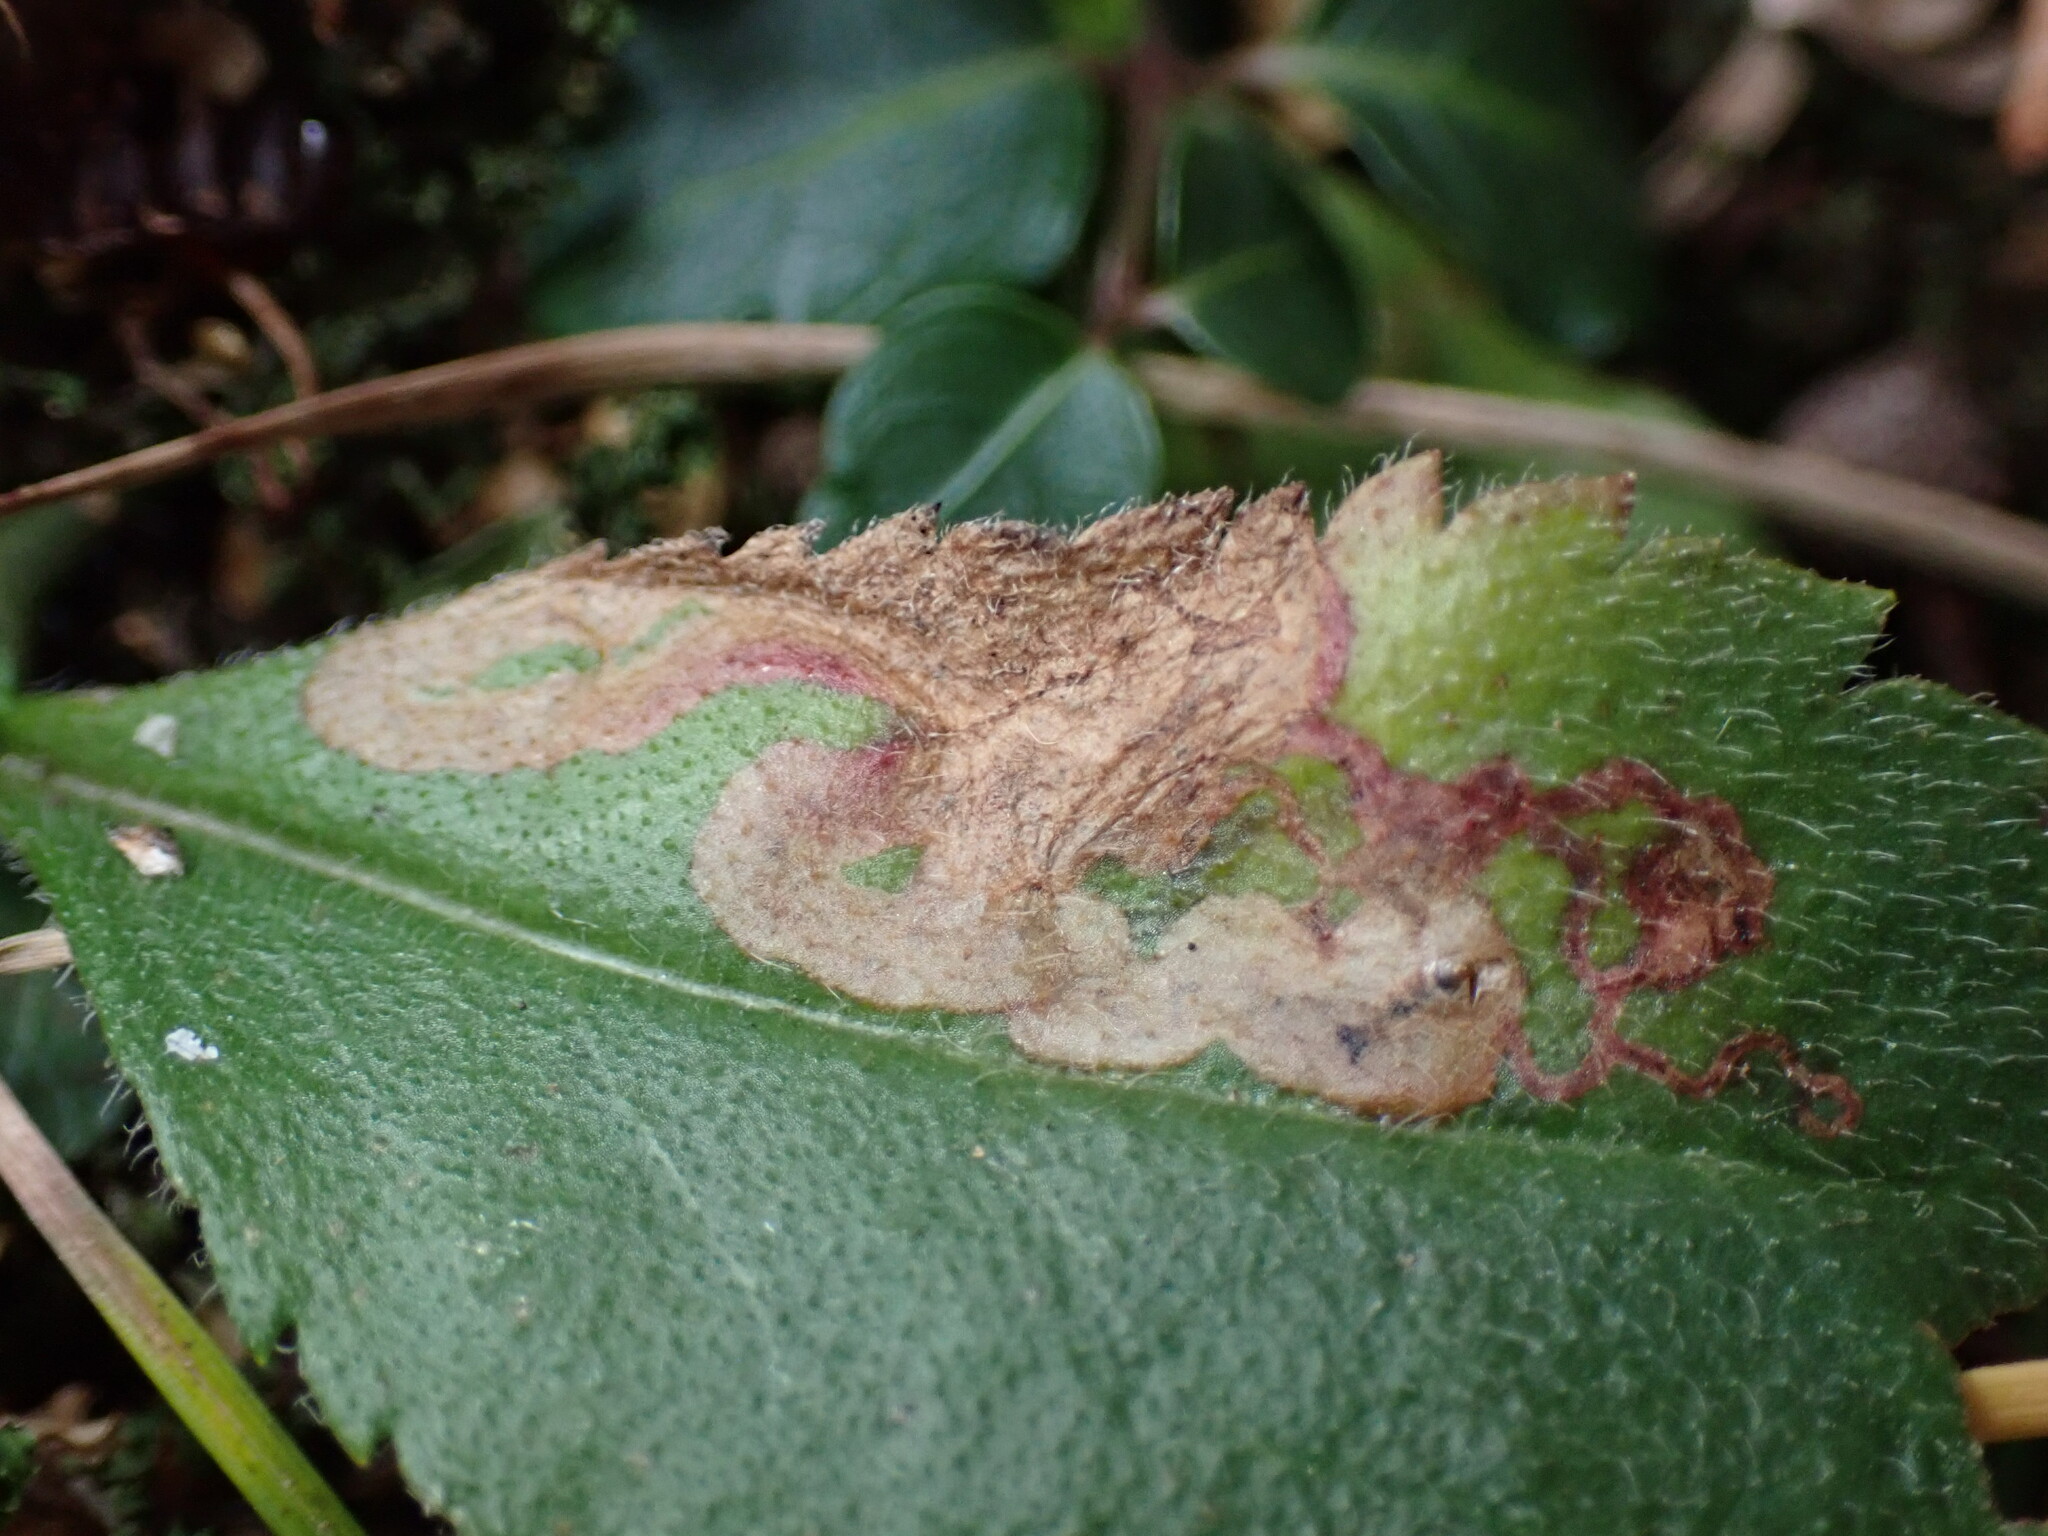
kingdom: Animalia
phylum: Arthropoda
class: Insecta
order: Diptera
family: Agromyzidae
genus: Phytomyza
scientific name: Phytomyza crassiseta
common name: Leaf-miner fly
